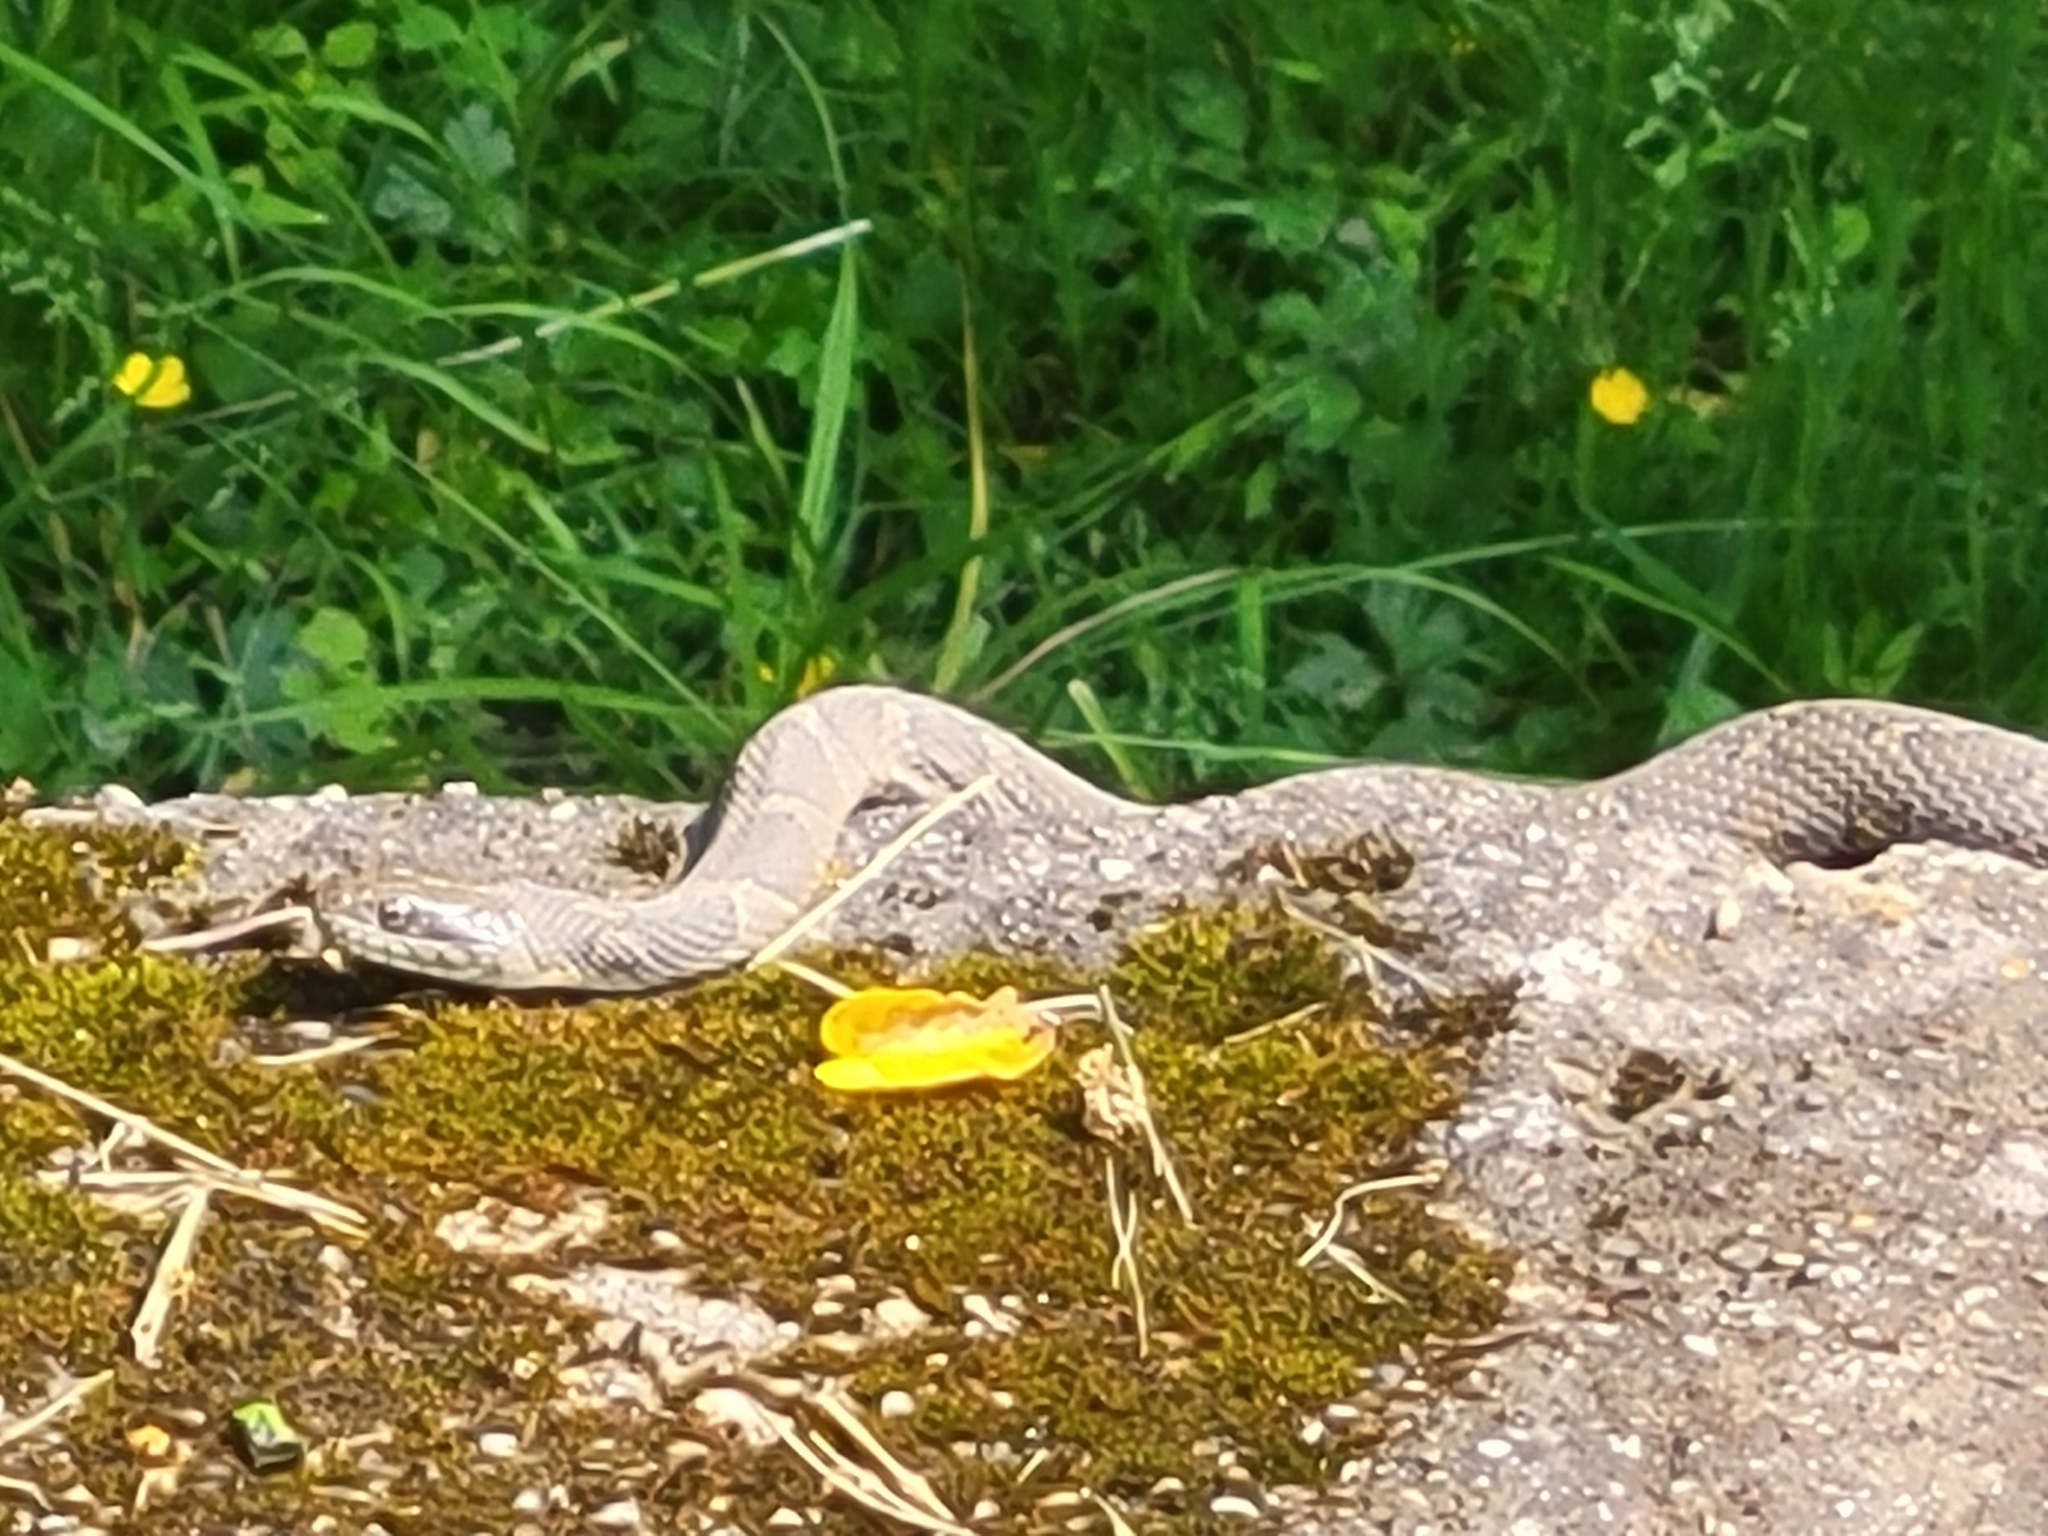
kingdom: Animalia
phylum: Chordata
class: Squamata
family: Colubridae
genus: Nerodia
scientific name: Nerodia sipedon
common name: Northern water snake
